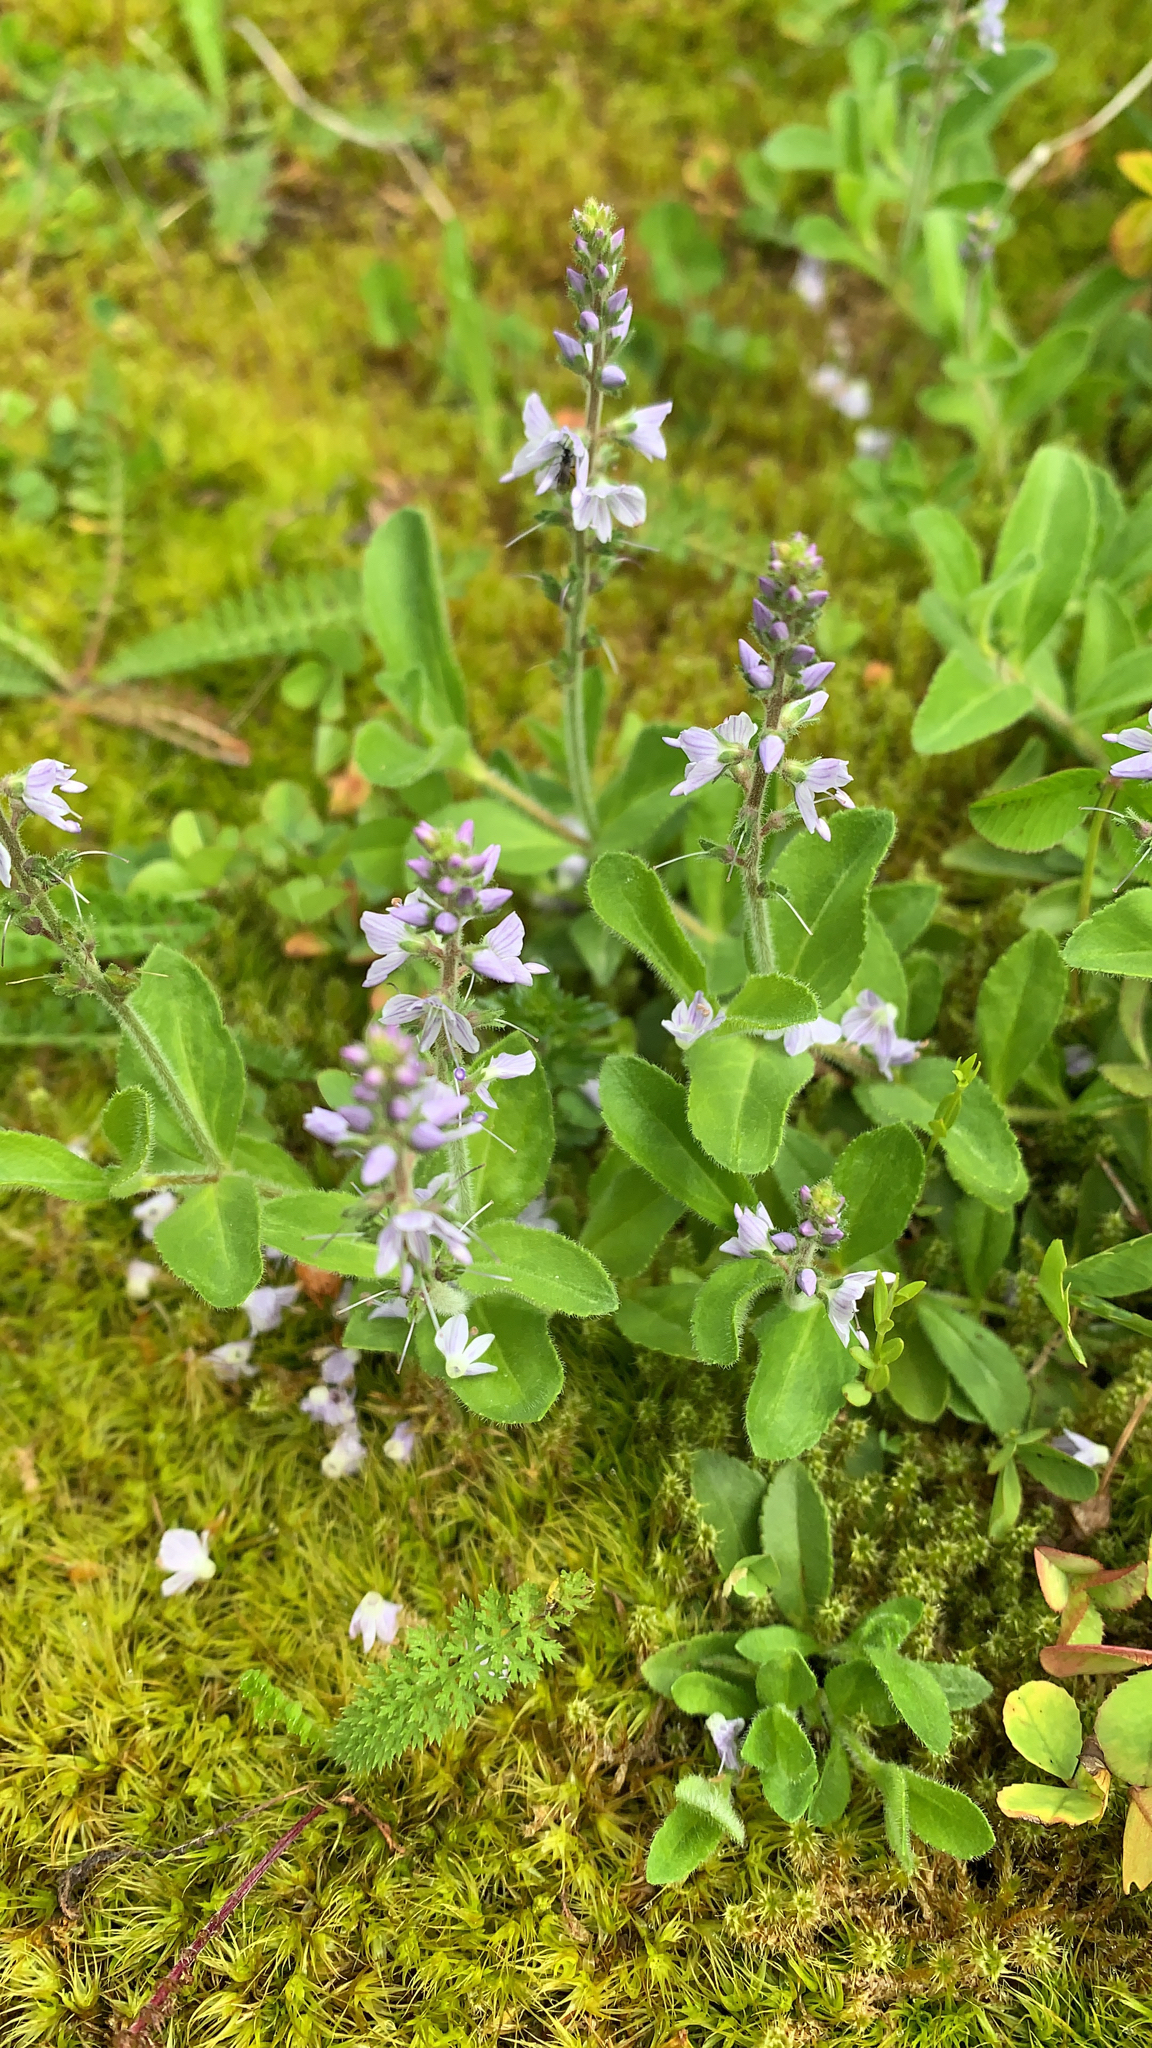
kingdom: Plantae
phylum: Tracheophyta
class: Magnoliopsida
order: Lamiales
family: Plantaginaceae
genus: Veronica
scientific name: Veronica officinalis
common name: Common speedwell
